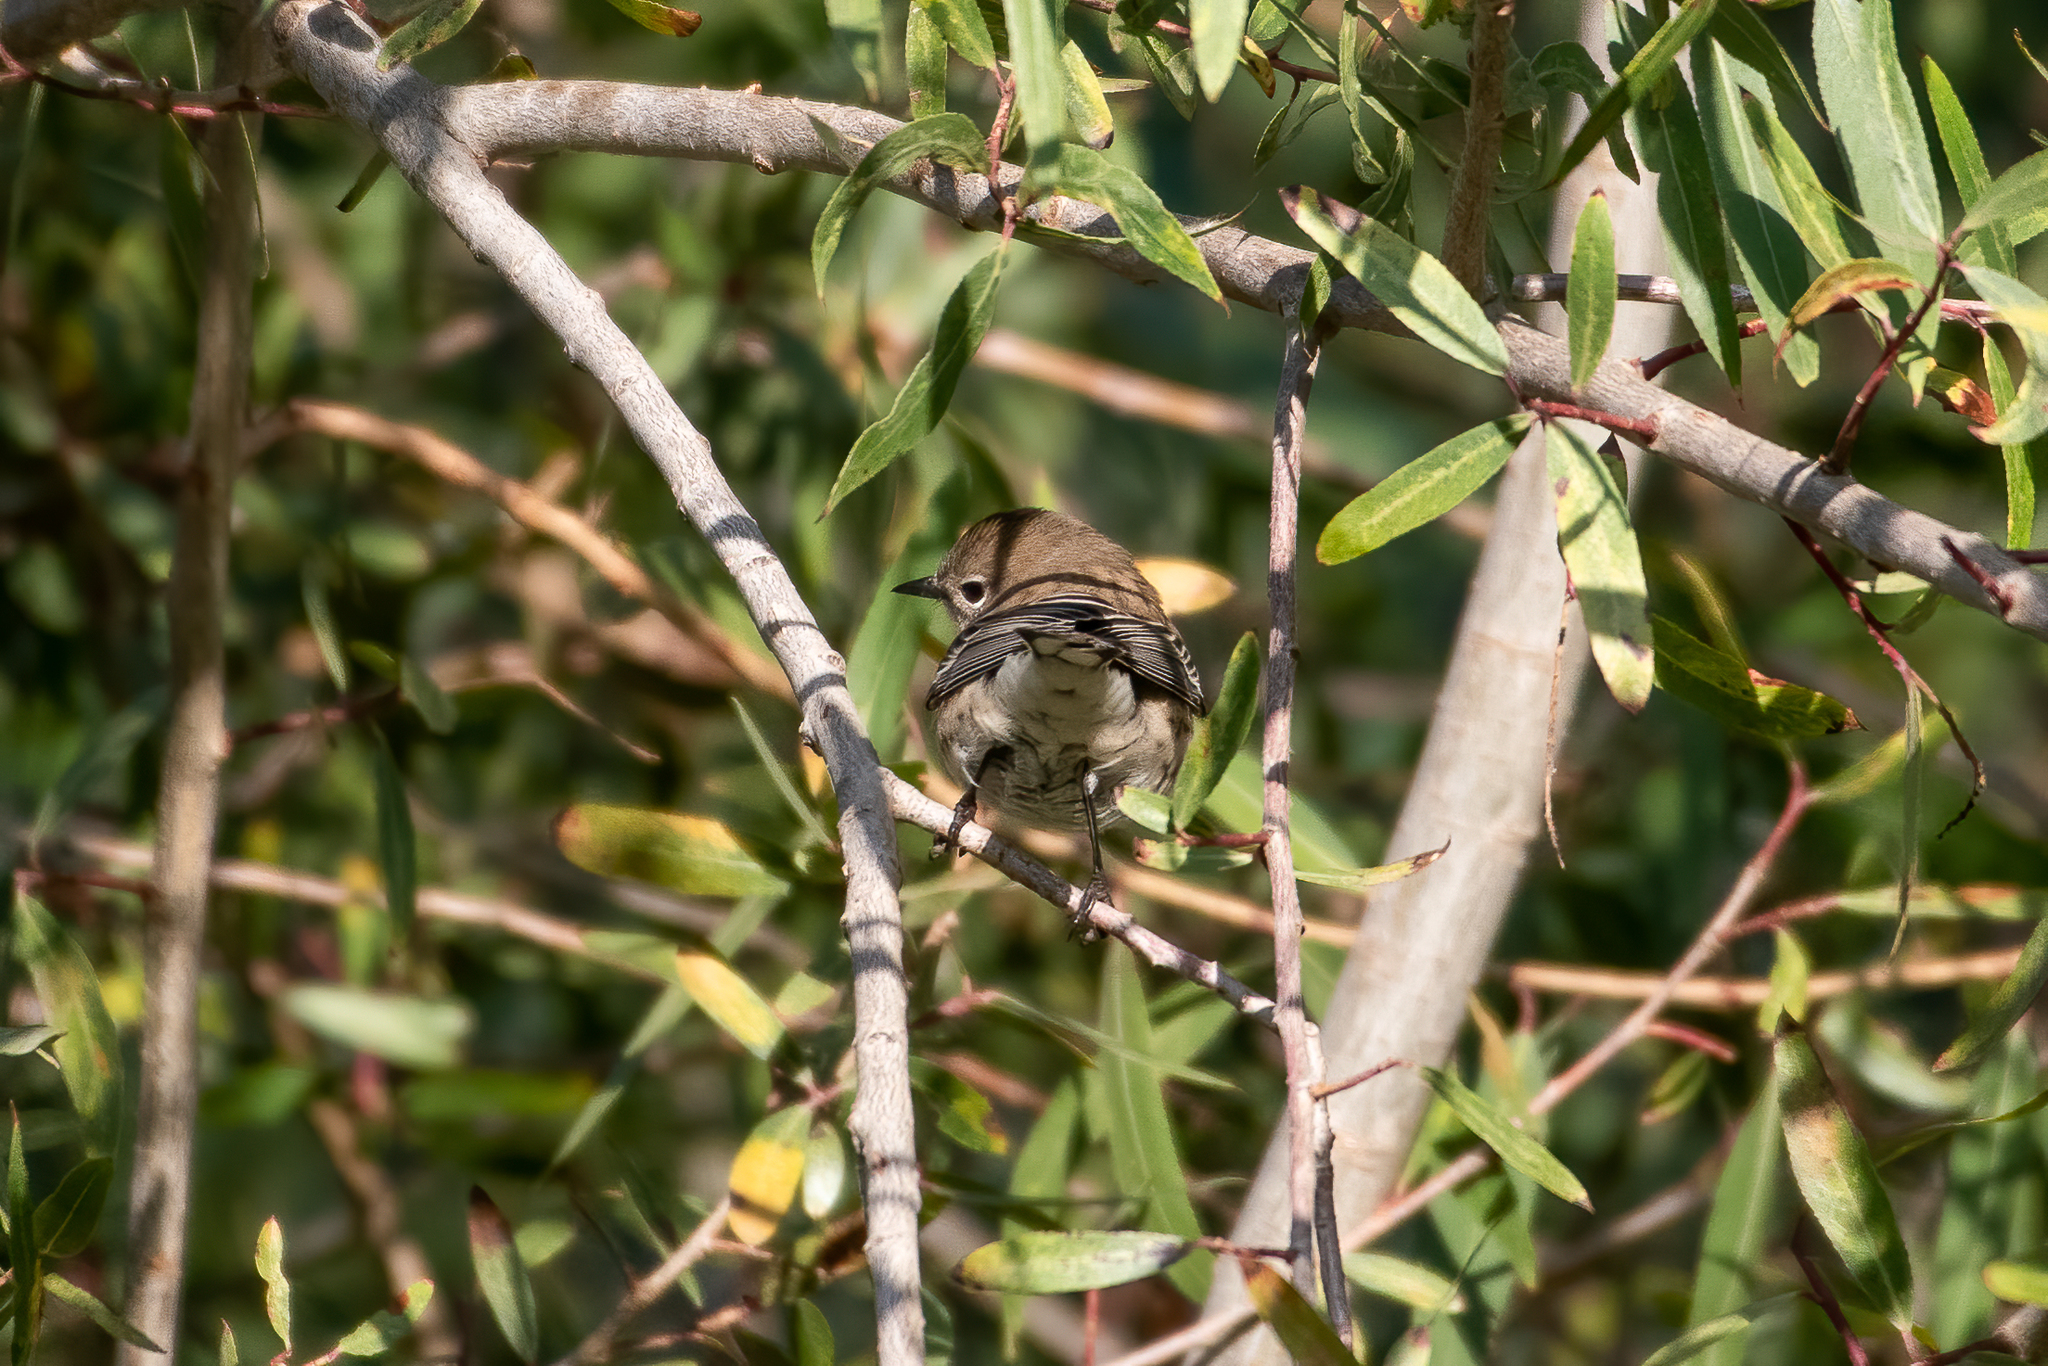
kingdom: Animalia
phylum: Chordata
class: Aves
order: Passeriformes
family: Parulidae
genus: Setophaga
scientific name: Setophaga coronata
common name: Myrtle warbler
